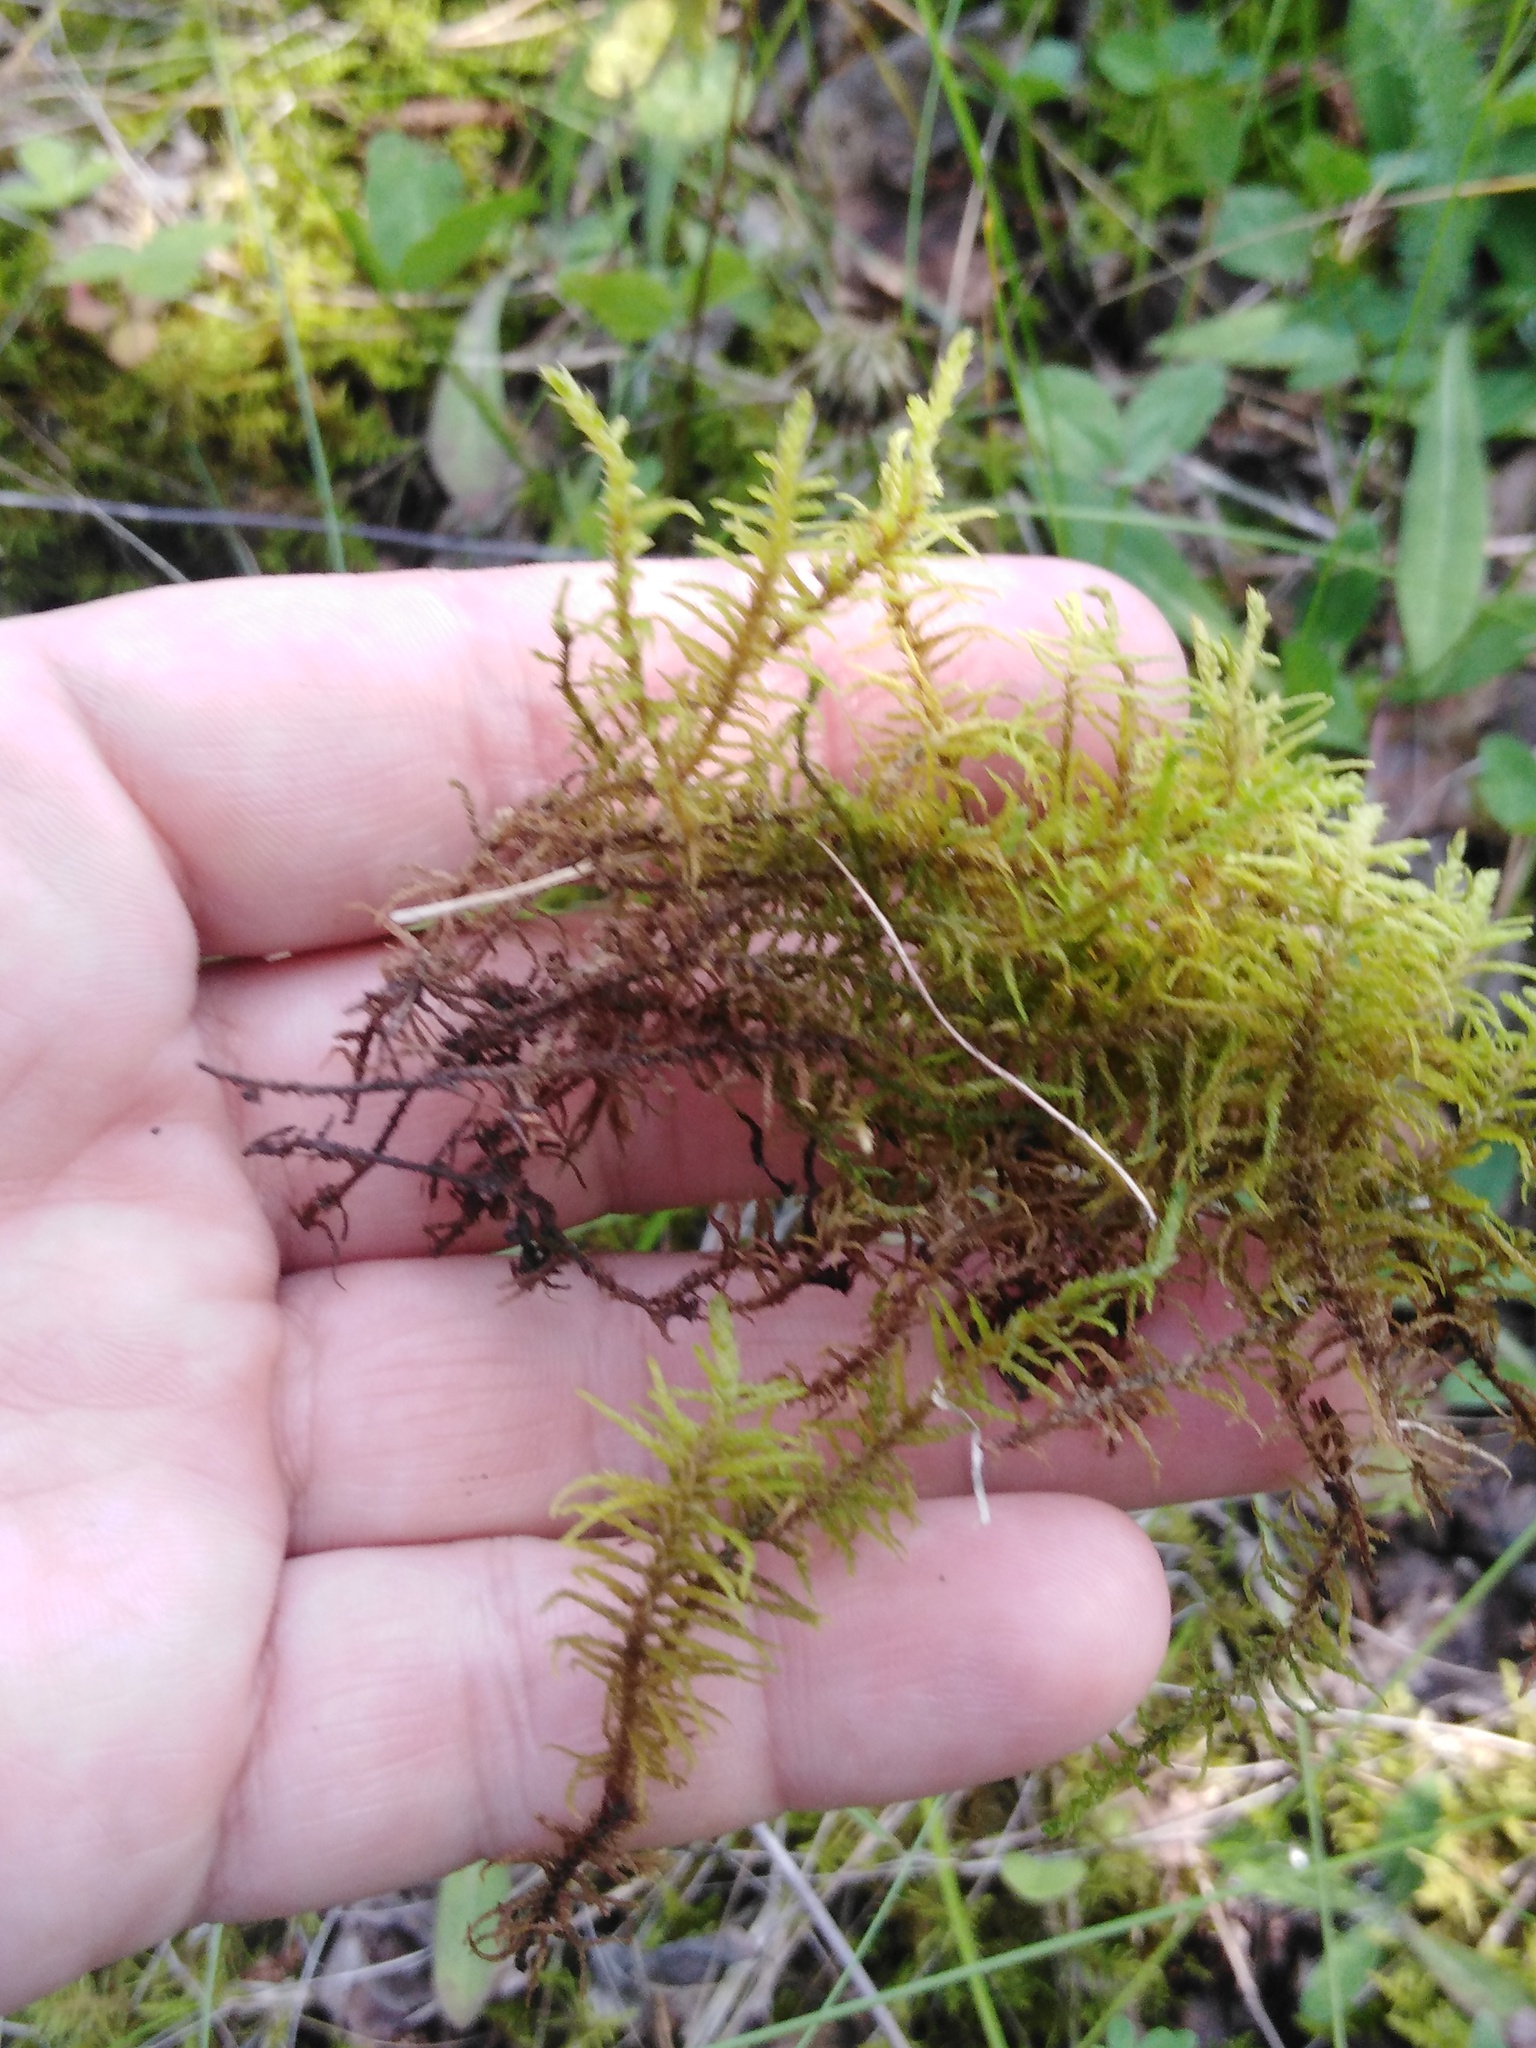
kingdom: Plantae
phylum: Bryophyta
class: Bryopsida
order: Hypnales
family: Thuidiaceae
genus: Abietinella
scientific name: Abietinella abietina
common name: Wiry fern moss
